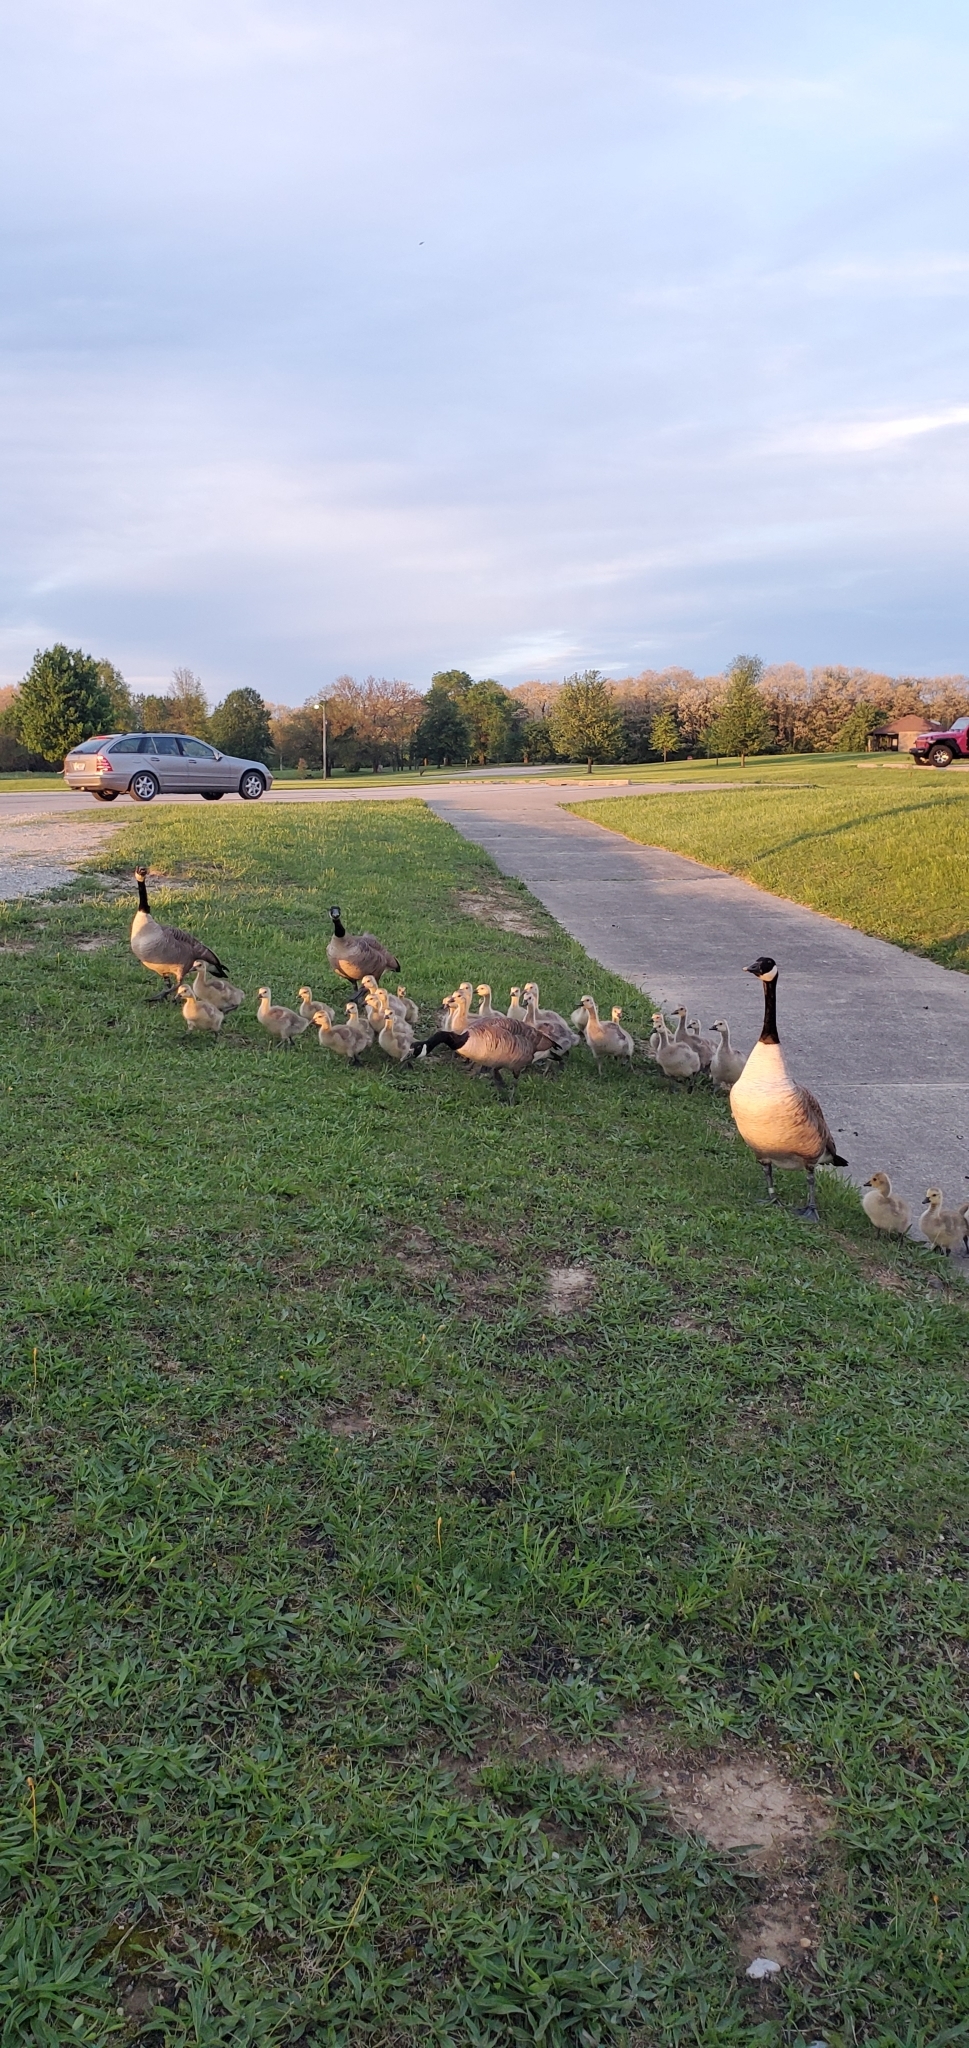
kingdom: Animalia
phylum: Chordata
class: Aves
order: Anseriformes
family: Anatidae
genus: Branta
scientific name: Branta canadensis
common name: Canada goose
